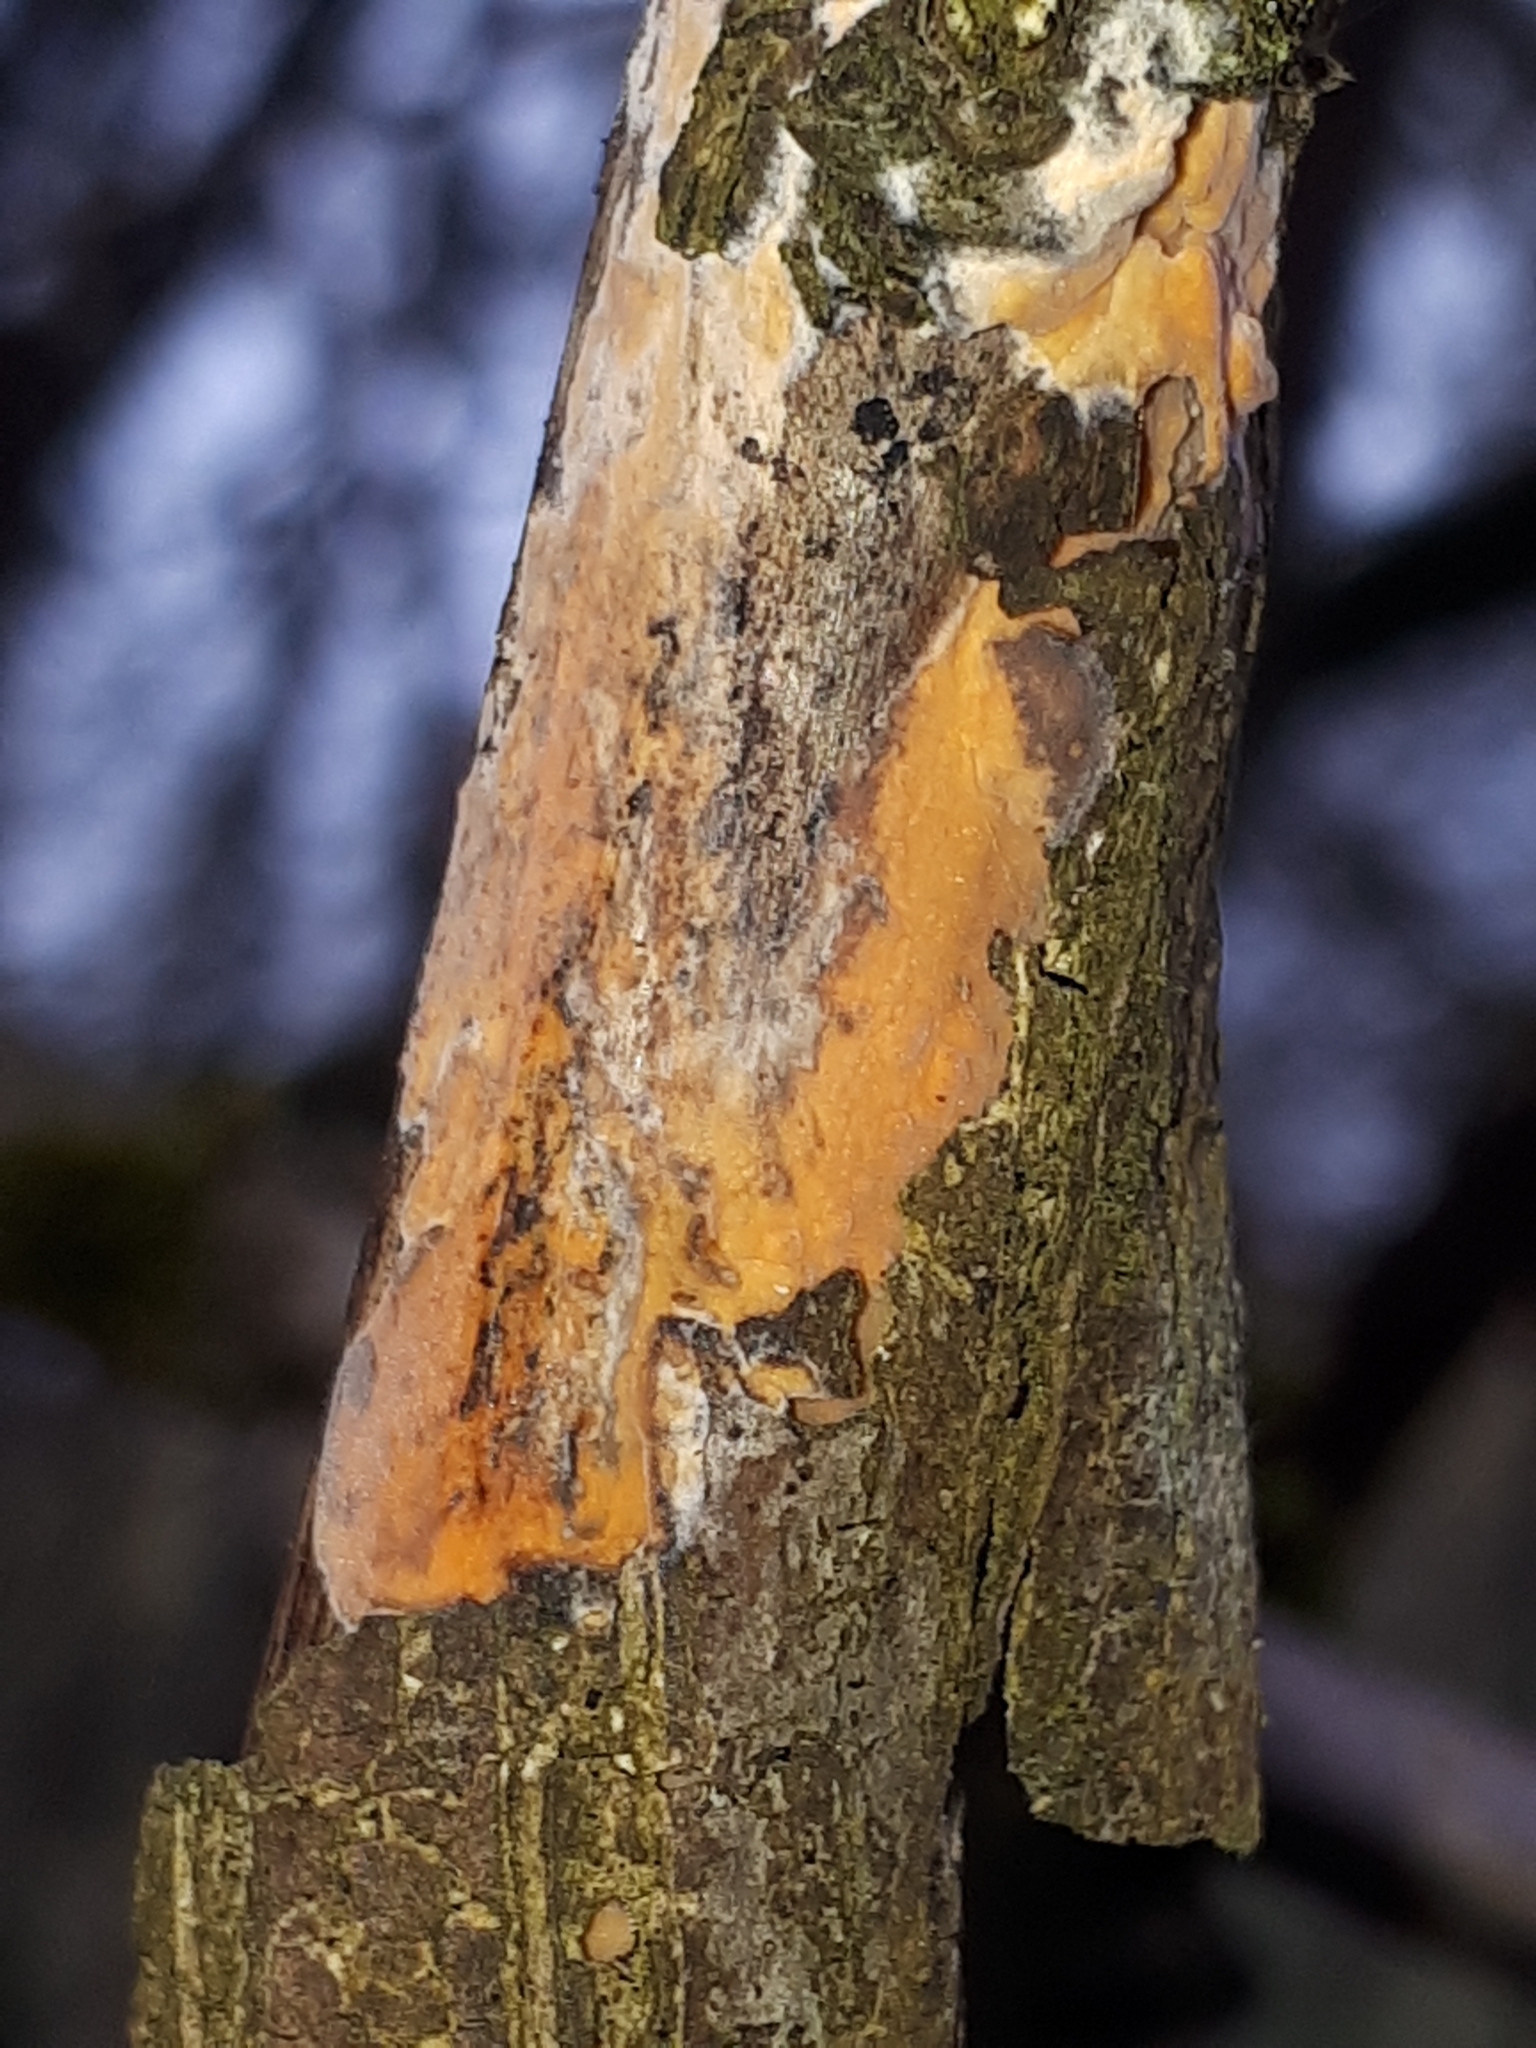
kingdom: Fungi
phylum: Basidiomycota
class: Agaricomycetes
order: Russulales
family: Peniophoraceae
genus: Peniophora
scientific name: Peniophora incarnata
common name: Rosy crust
